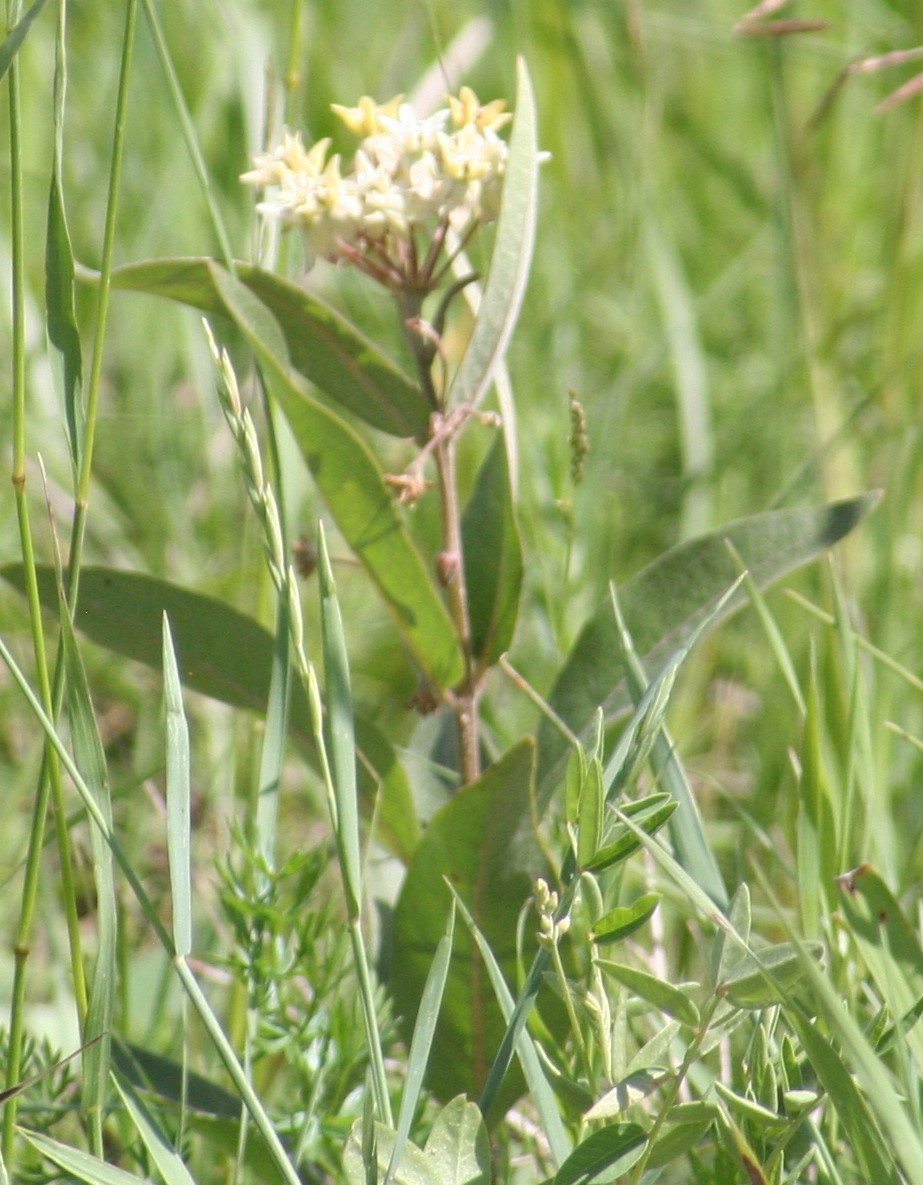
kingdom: Plantae
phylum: Tracheophyta
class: Magnoliopsida
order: Gentianales
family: Apocynaceae
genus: Asclepias
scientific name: Asclepias ovalifolia
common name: Dwarf milkweed
